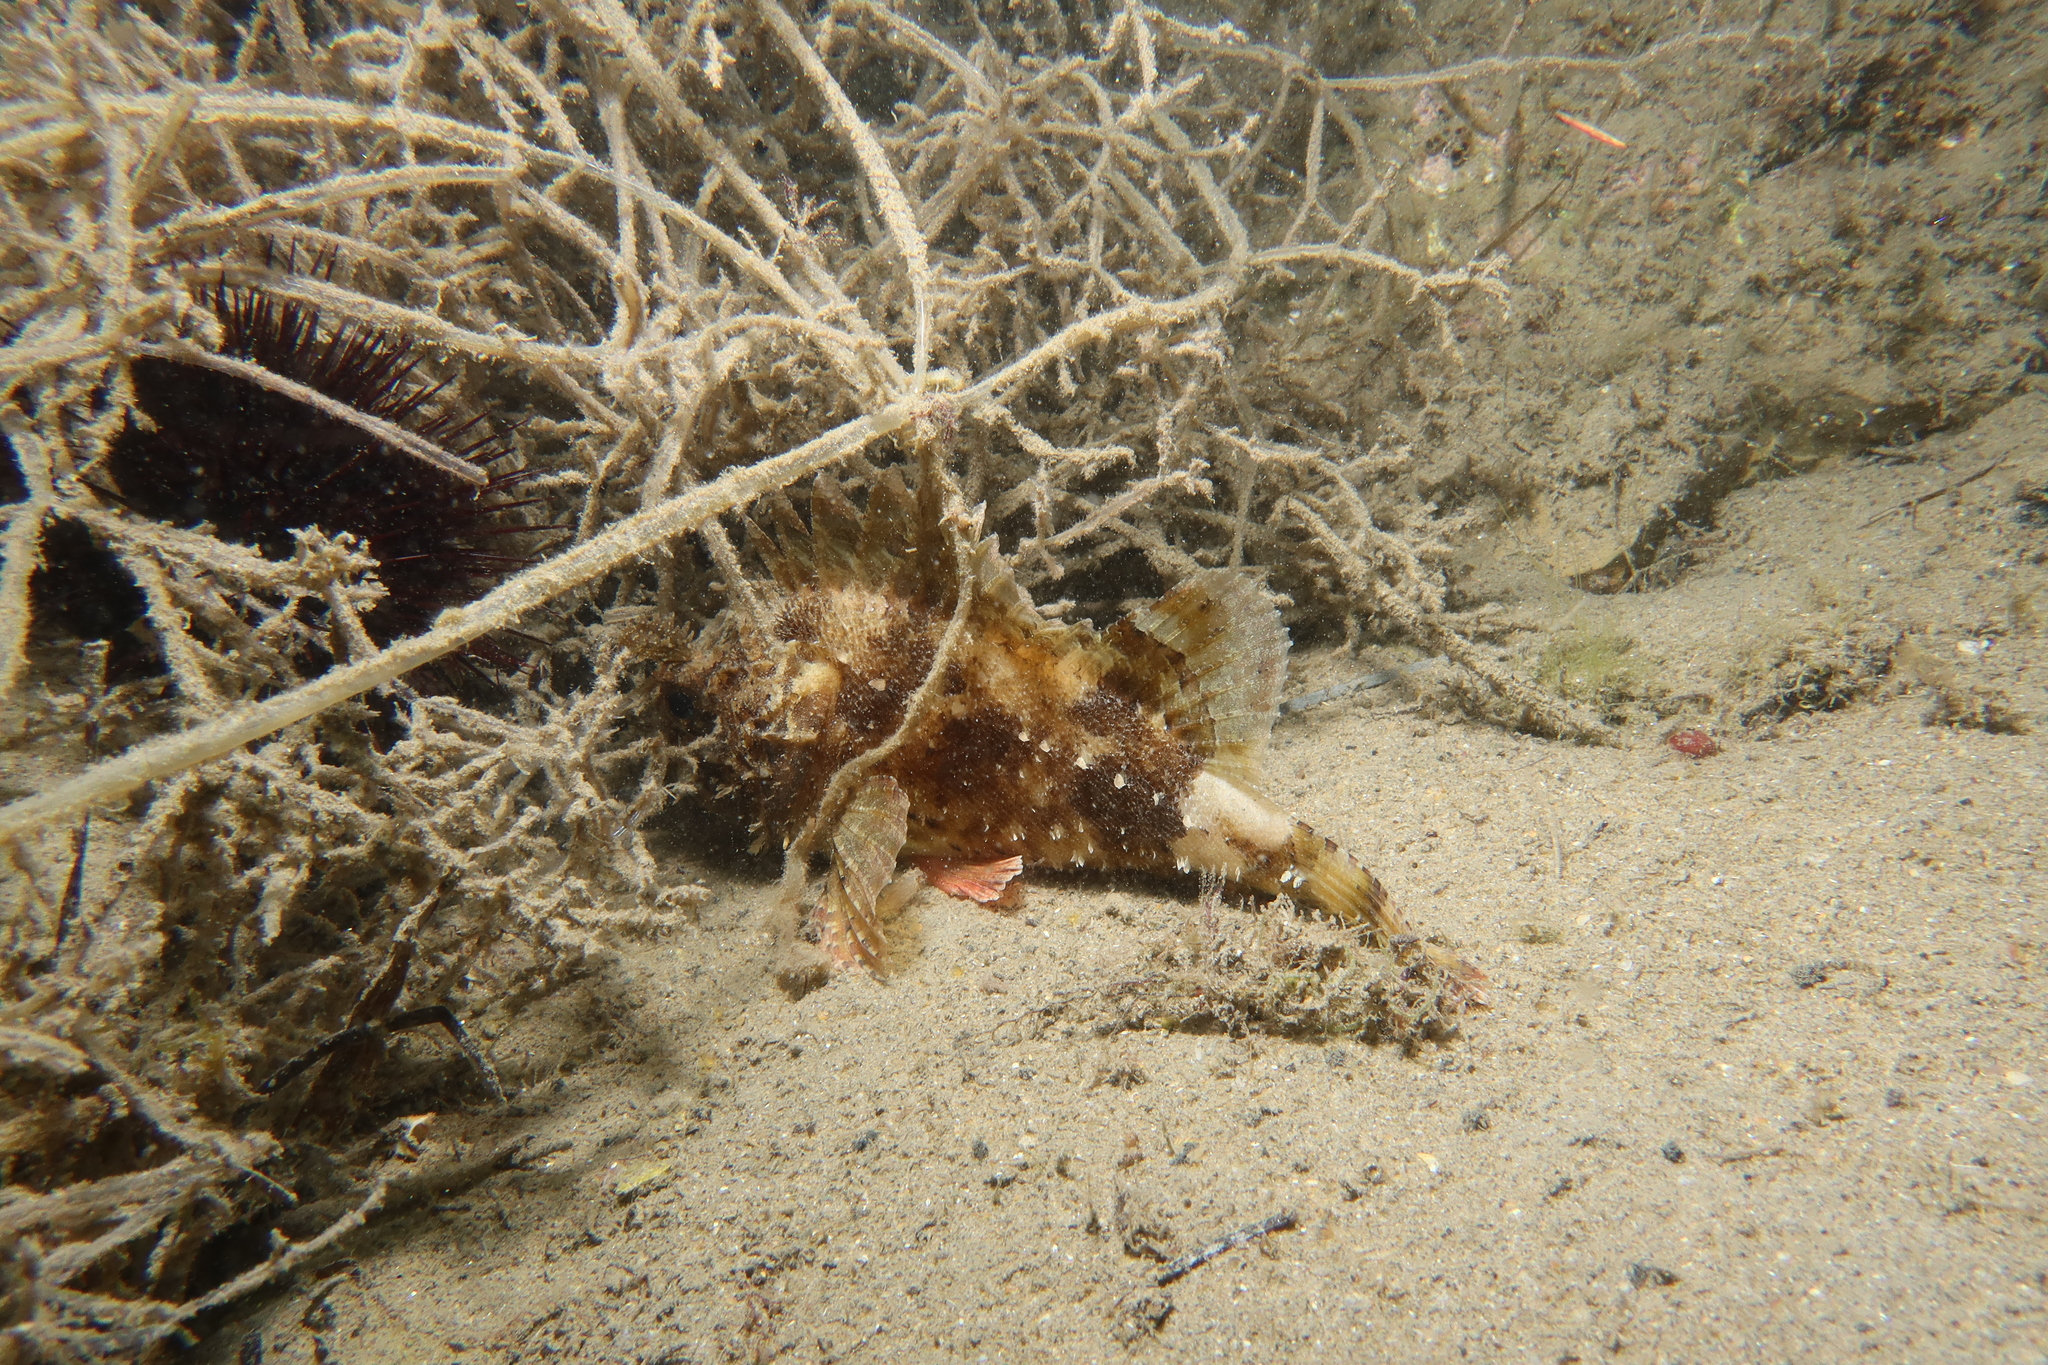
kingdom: Animalia
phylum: Chordata
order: Scorpaeniformes
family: Scorpaenidae
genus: Scorpaena
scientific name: Scorpaena porcus
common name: Black scorpionfish
